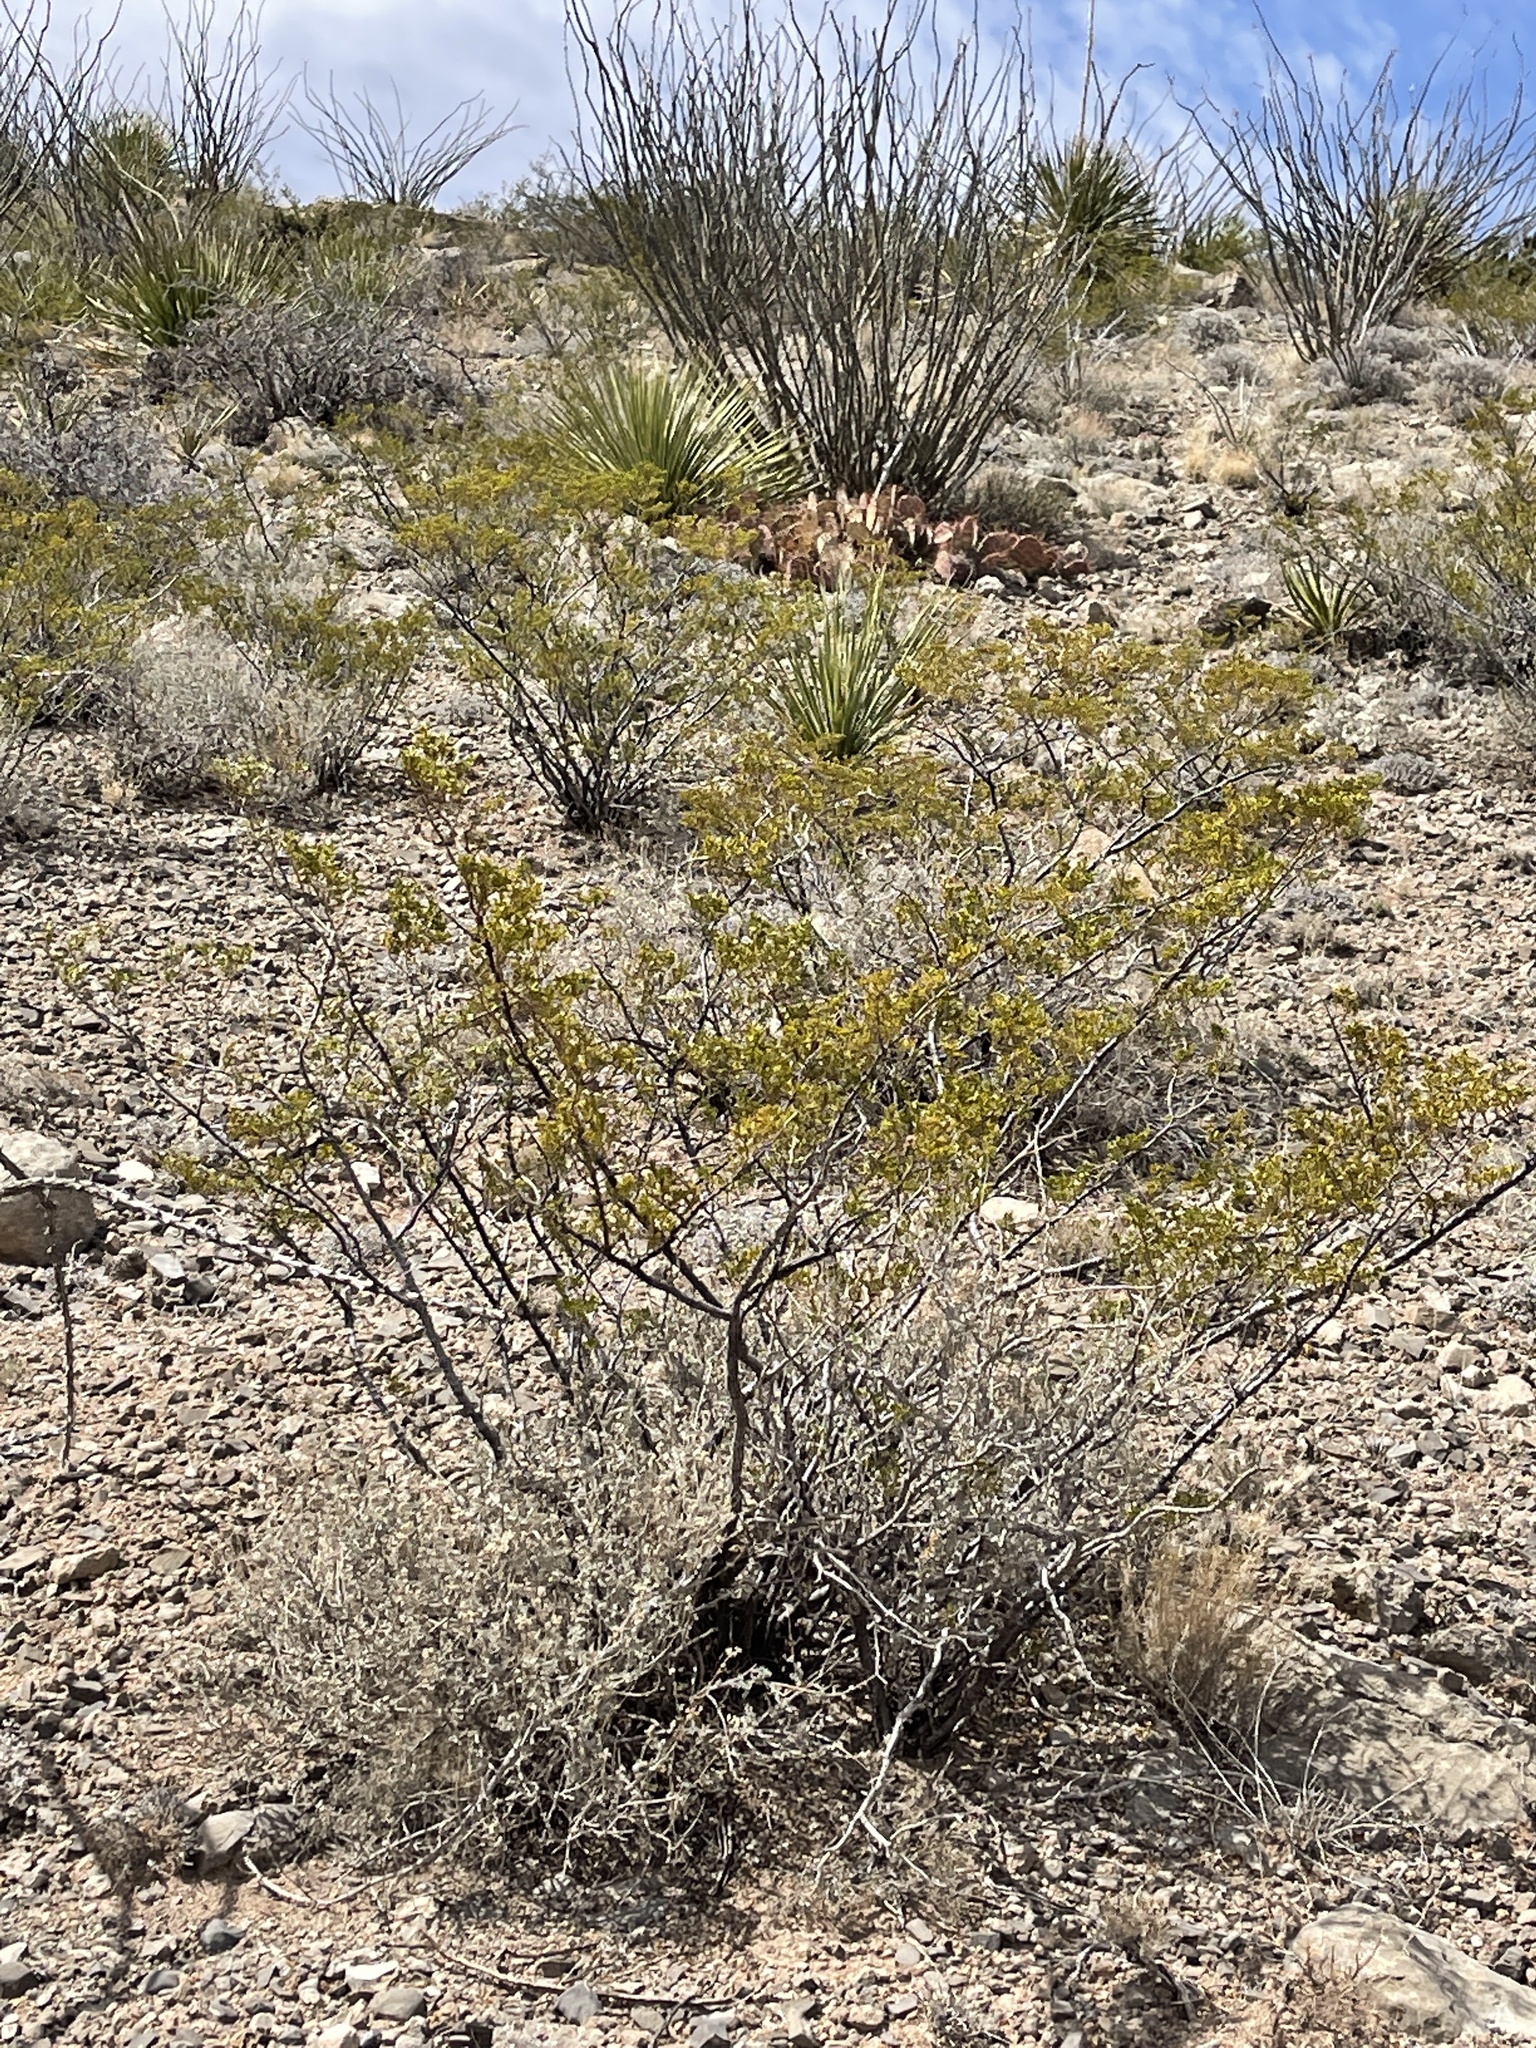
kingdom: Plantae
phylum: Tracheophyta
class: Magnoliopsida
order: Zygophyllales
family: Zygophyllaceae
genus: Larrea
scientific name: Larrea tridentata
